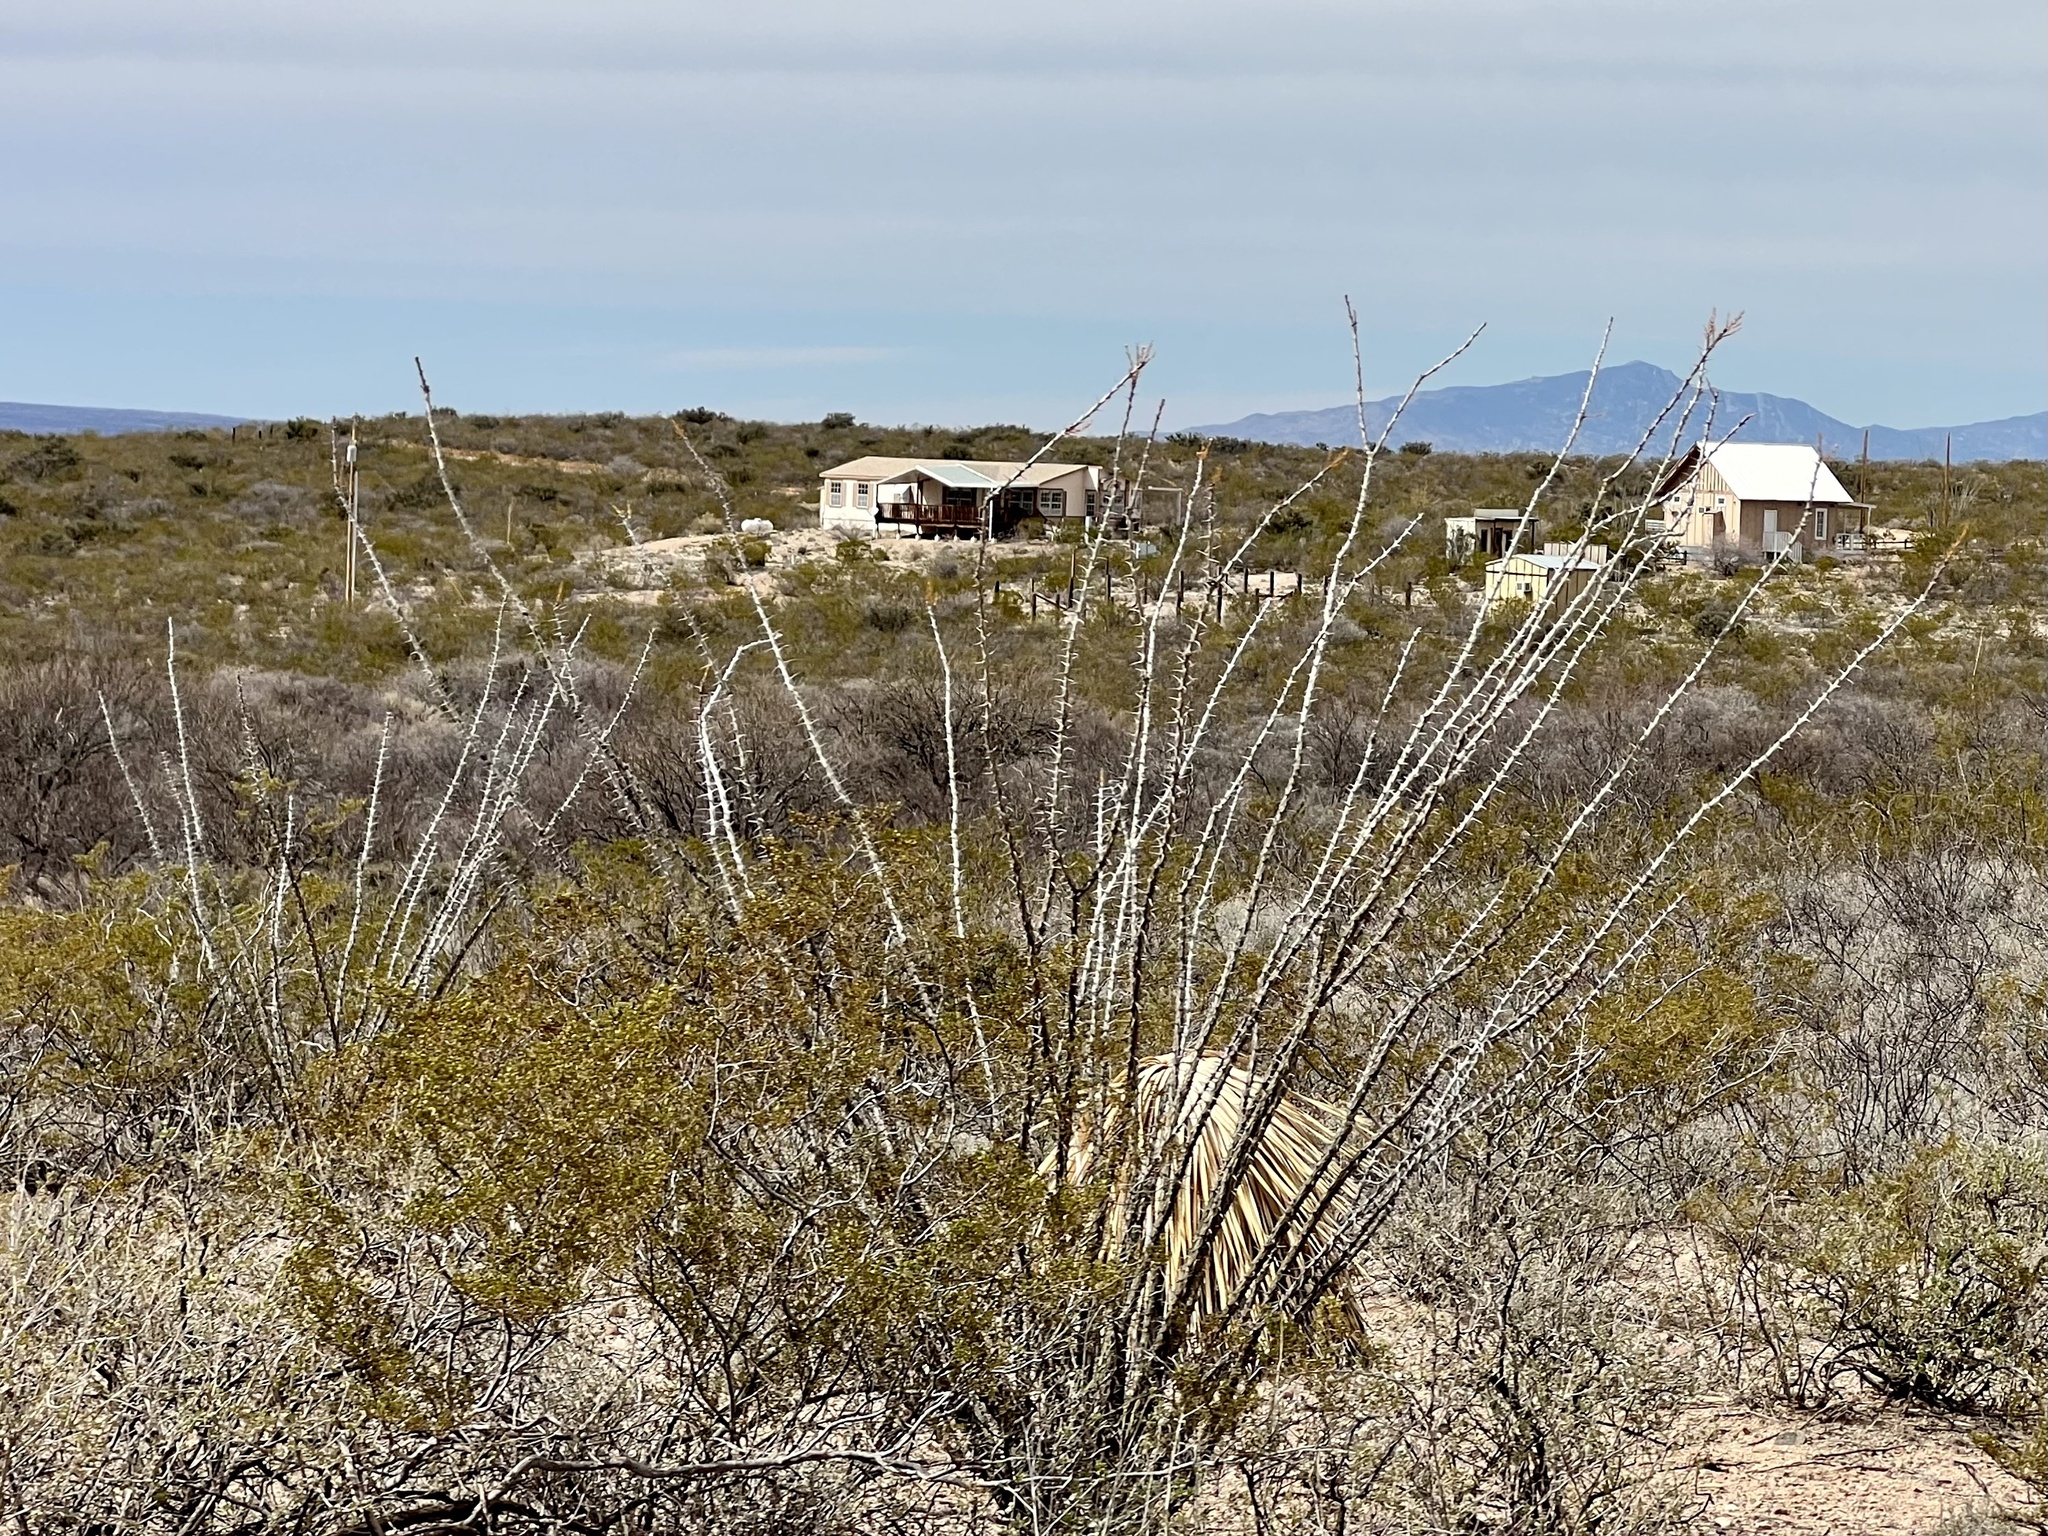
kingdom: Plantae
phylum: Tracheophyta
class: Magnoliopsida
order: Ericales
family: Fouquieriaceae
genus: Fouquieria
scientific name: Fouquieria splendens
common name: Vine-cactus
